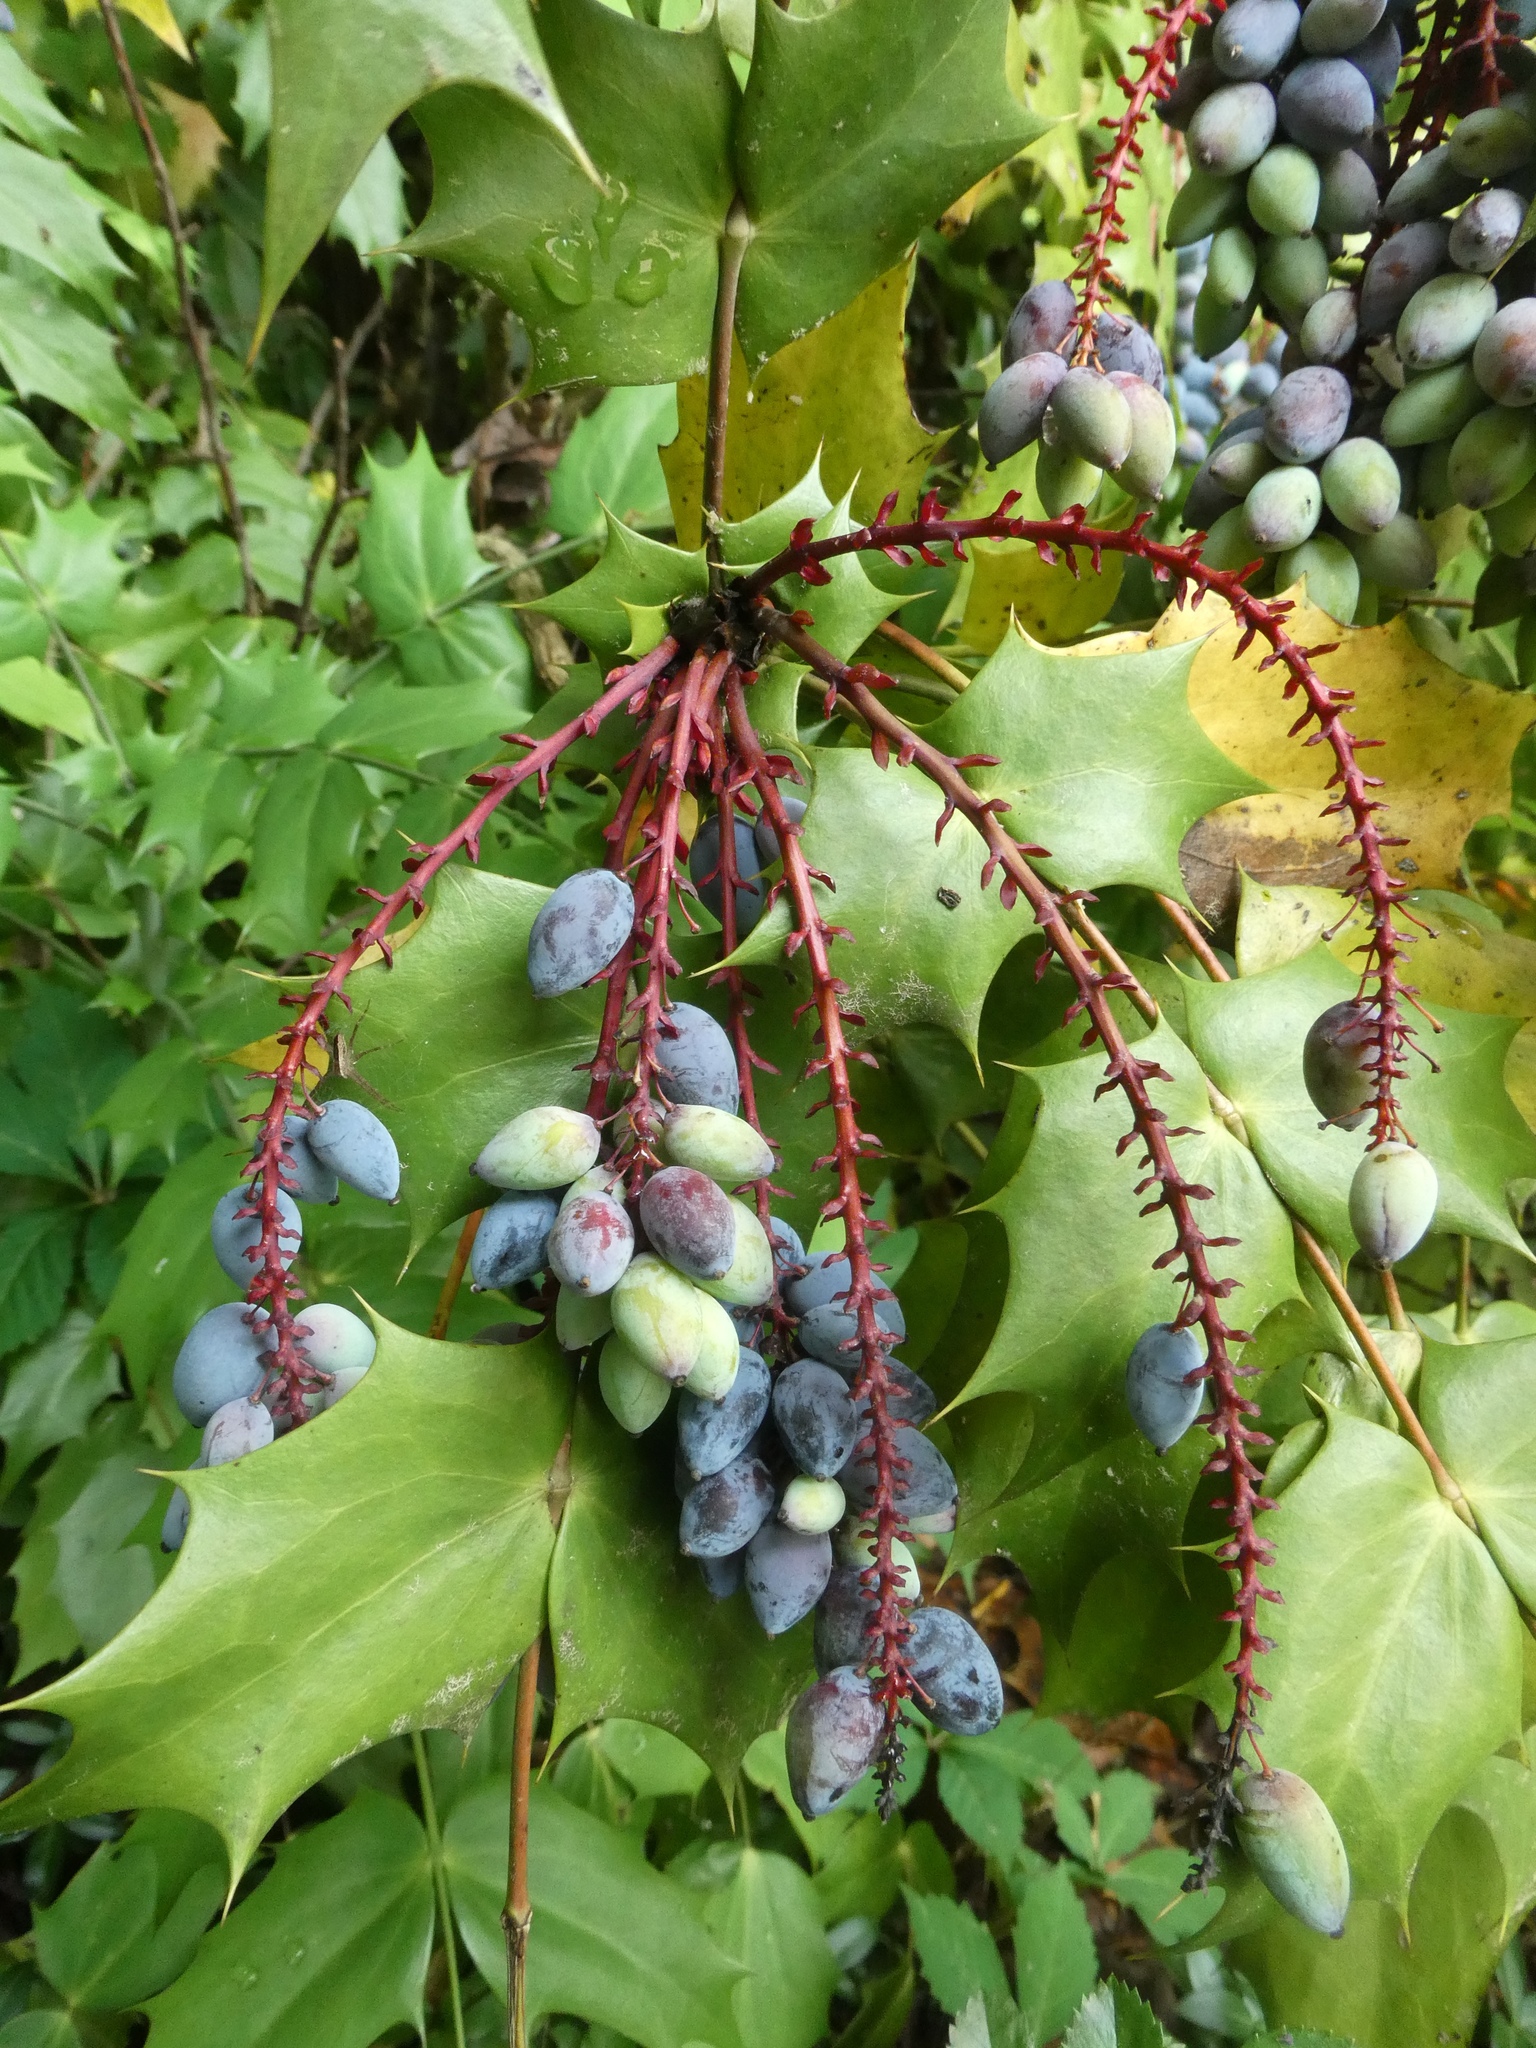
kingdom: Plantae
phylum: Tracheophyta
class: Magnoliopsida
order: Ranunculales
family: Berberidaceae
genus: Mahonia
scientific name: Mahonia bealei
